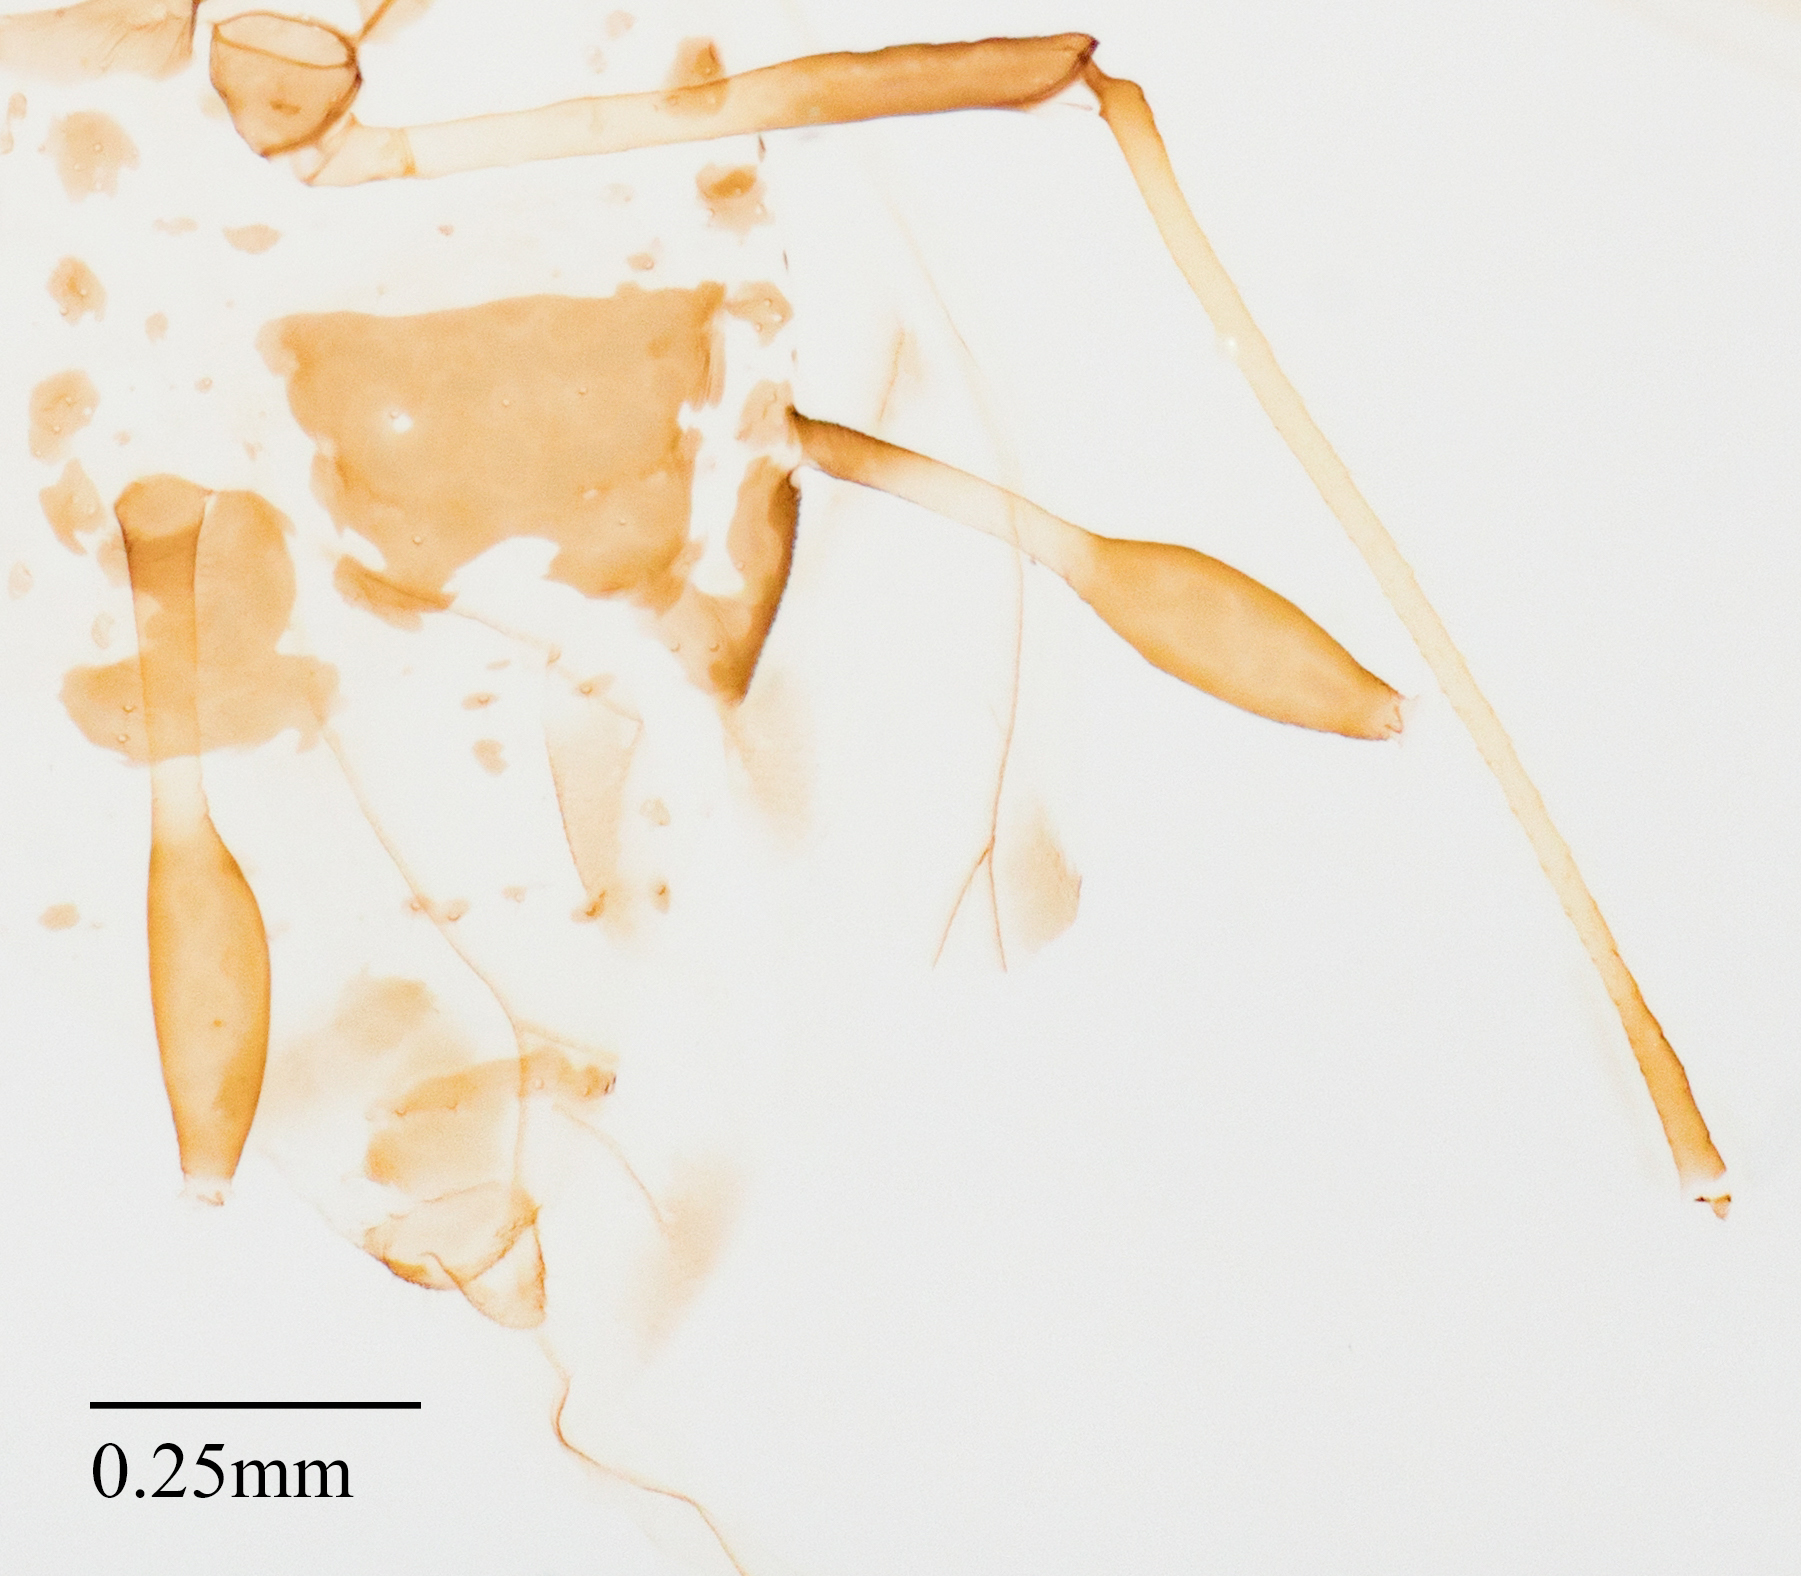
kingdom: Animalia
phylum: Arthropoda
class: Insecta
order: Hemiptera
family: Aphididae
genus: Eucarazzia
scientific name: Eucarazzia elegans
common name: Mint aphid
